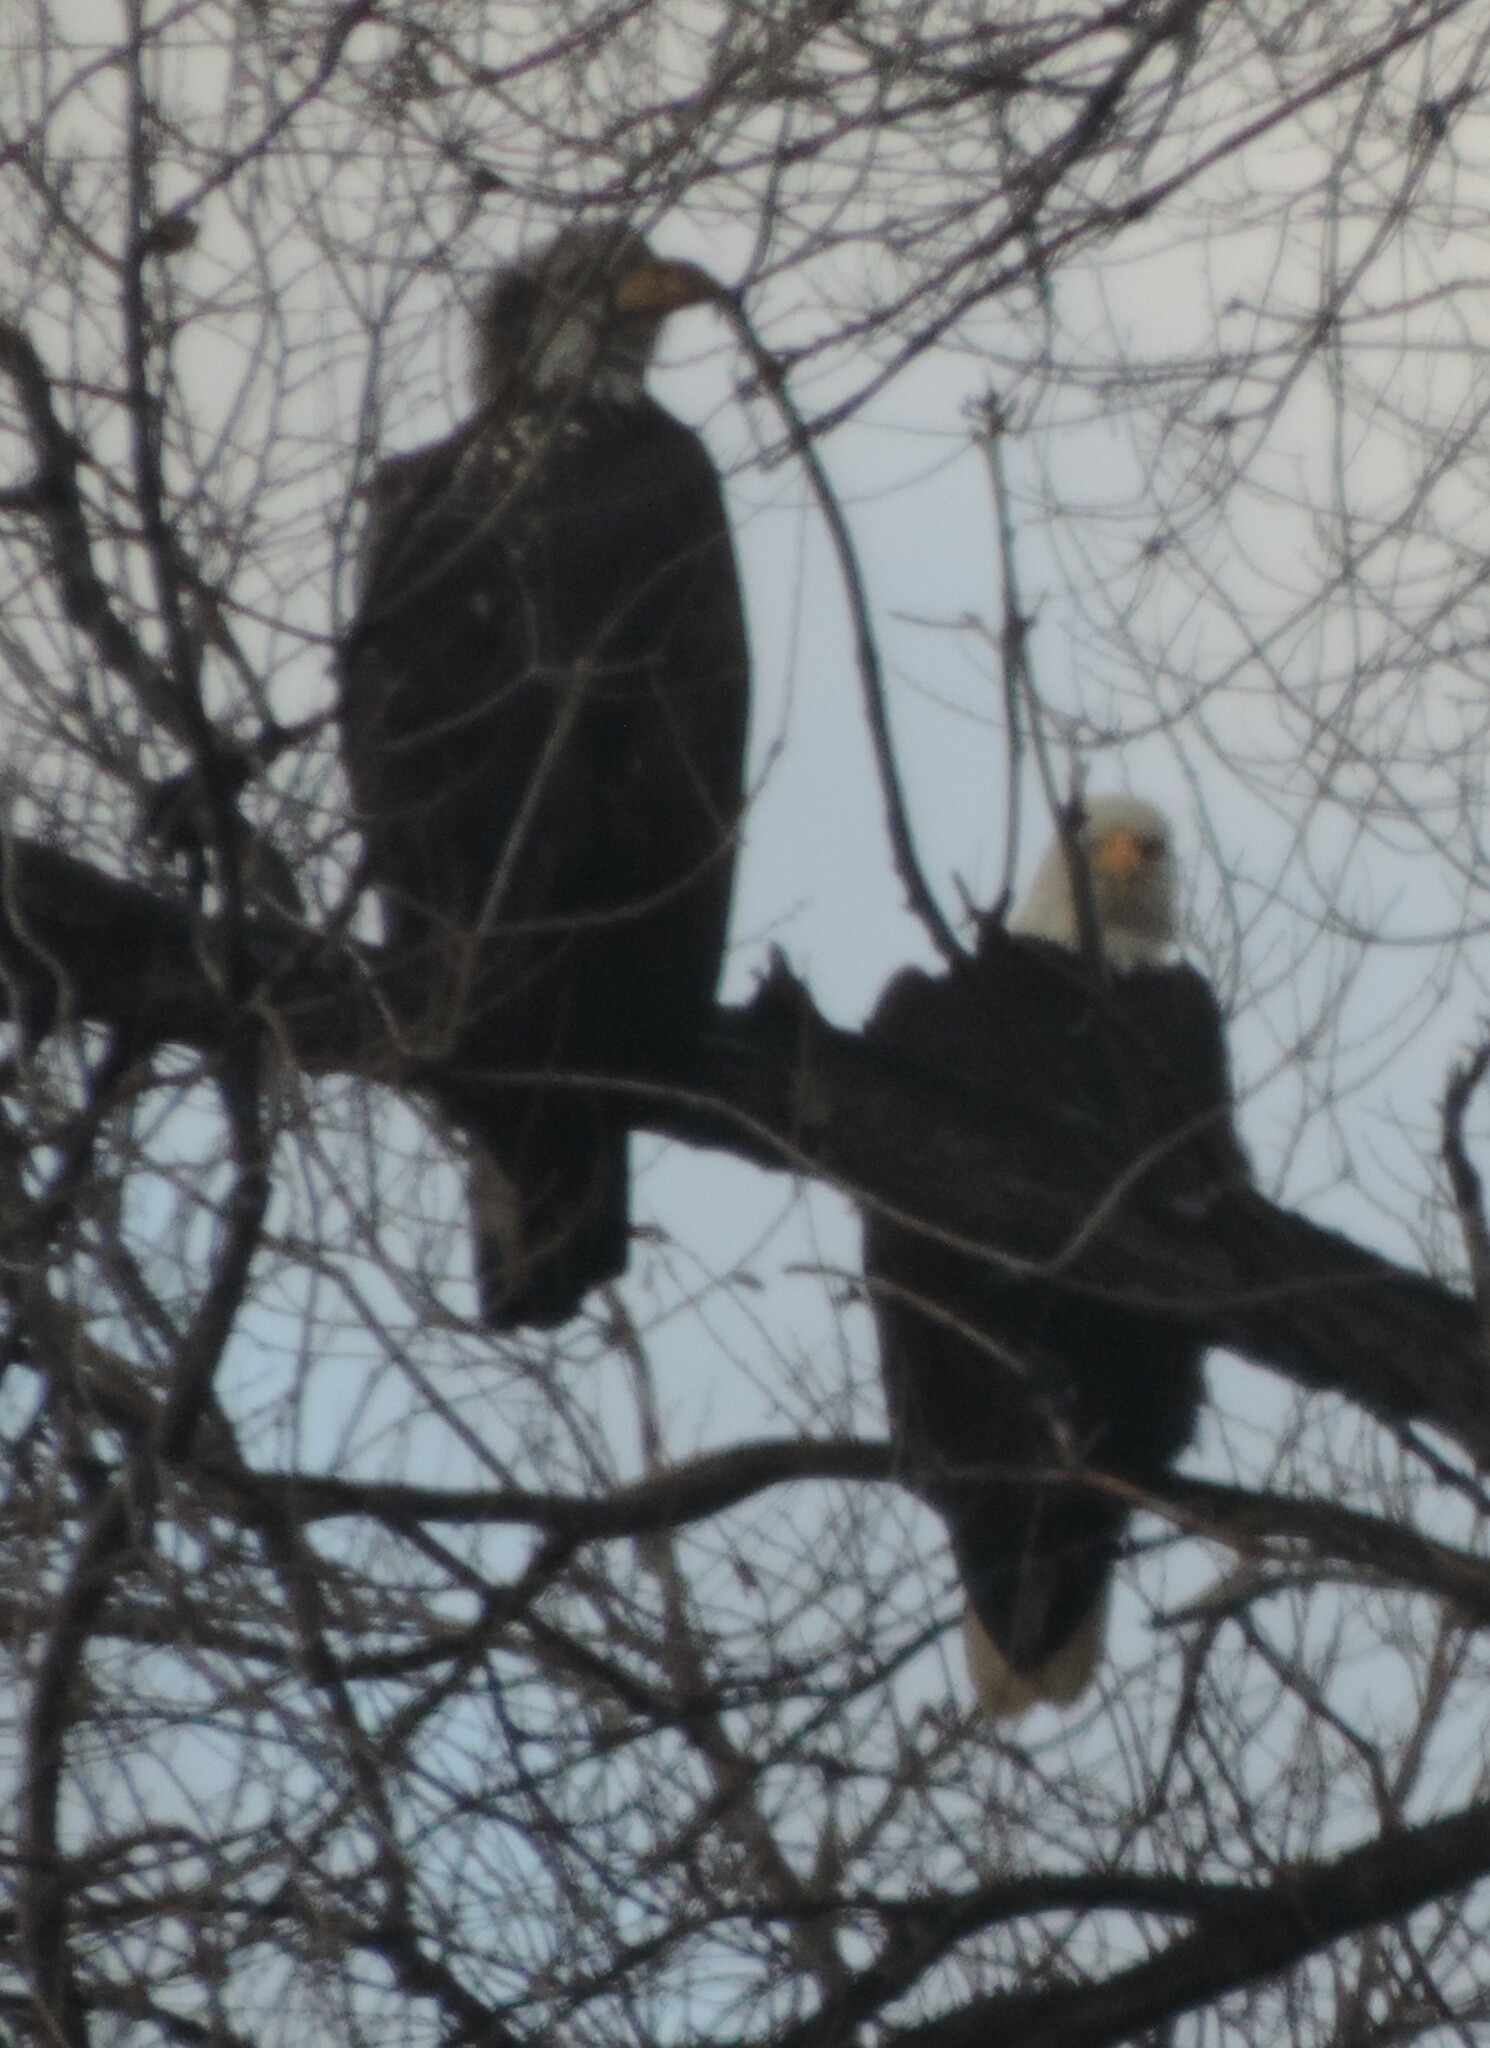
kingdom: Animalia
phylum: Chordata
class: Aves
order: Accipitriformes
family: Accipitridae
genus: Haliaeetus
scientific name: Haliaeetus leucocephalus
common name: Bald eagle
